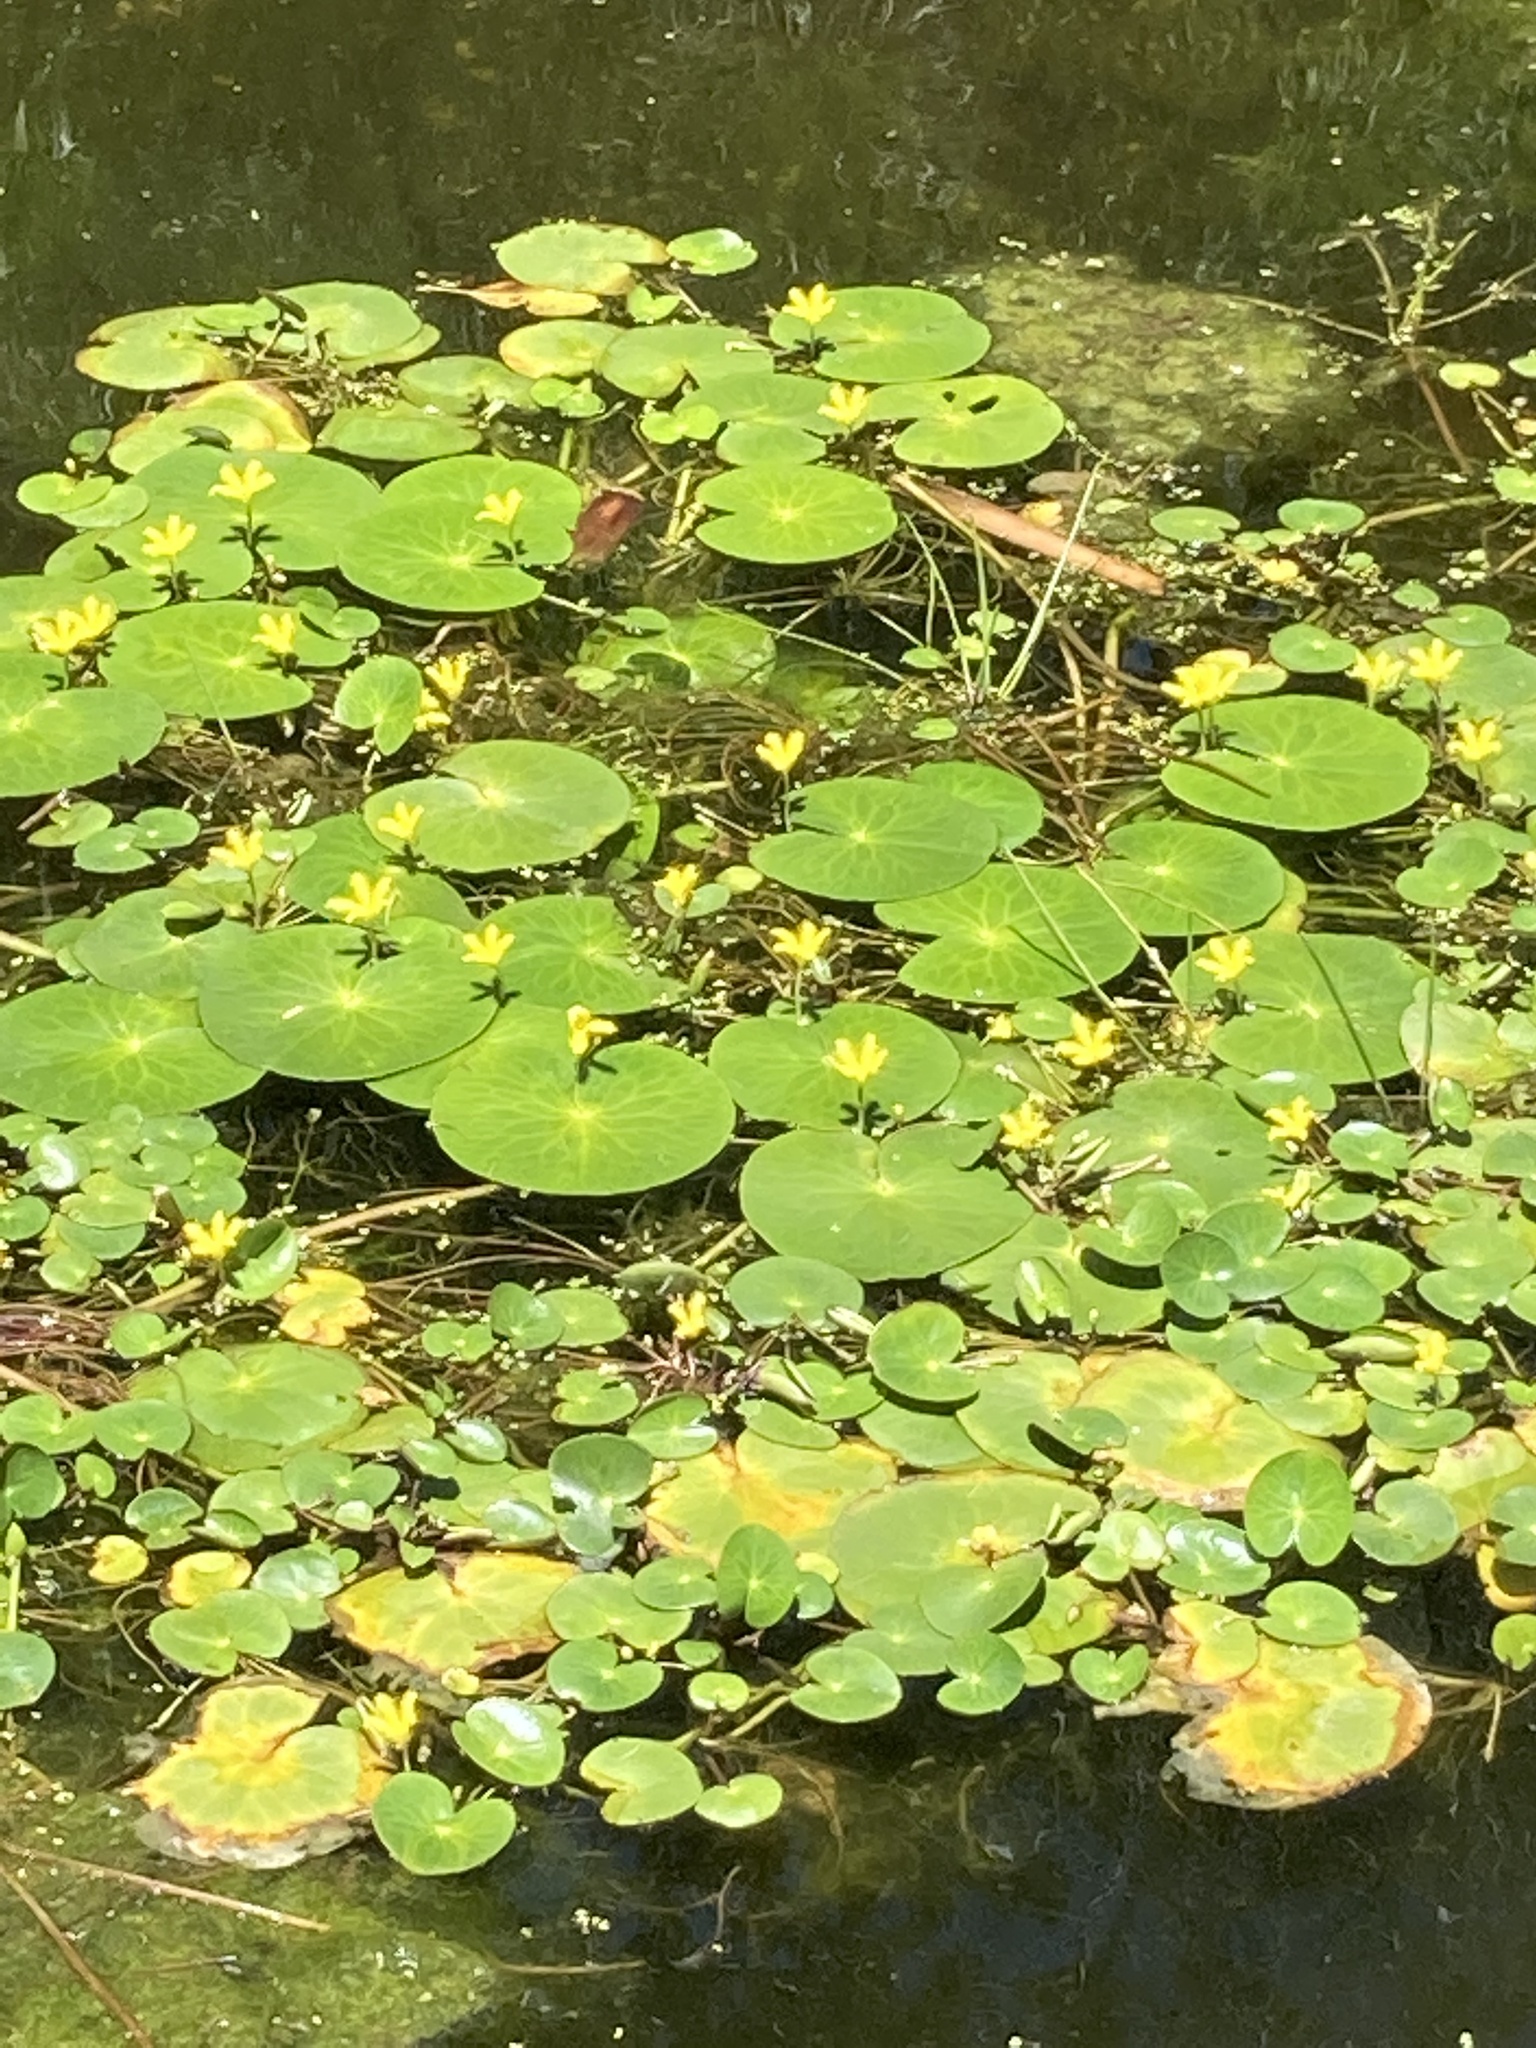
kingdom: Plantae
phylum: Tracheophyta
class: Magnoliopsida
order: Asterales
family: Menyanthaceae
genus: Nymphoides
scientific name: Nymphoides thunbergiana
